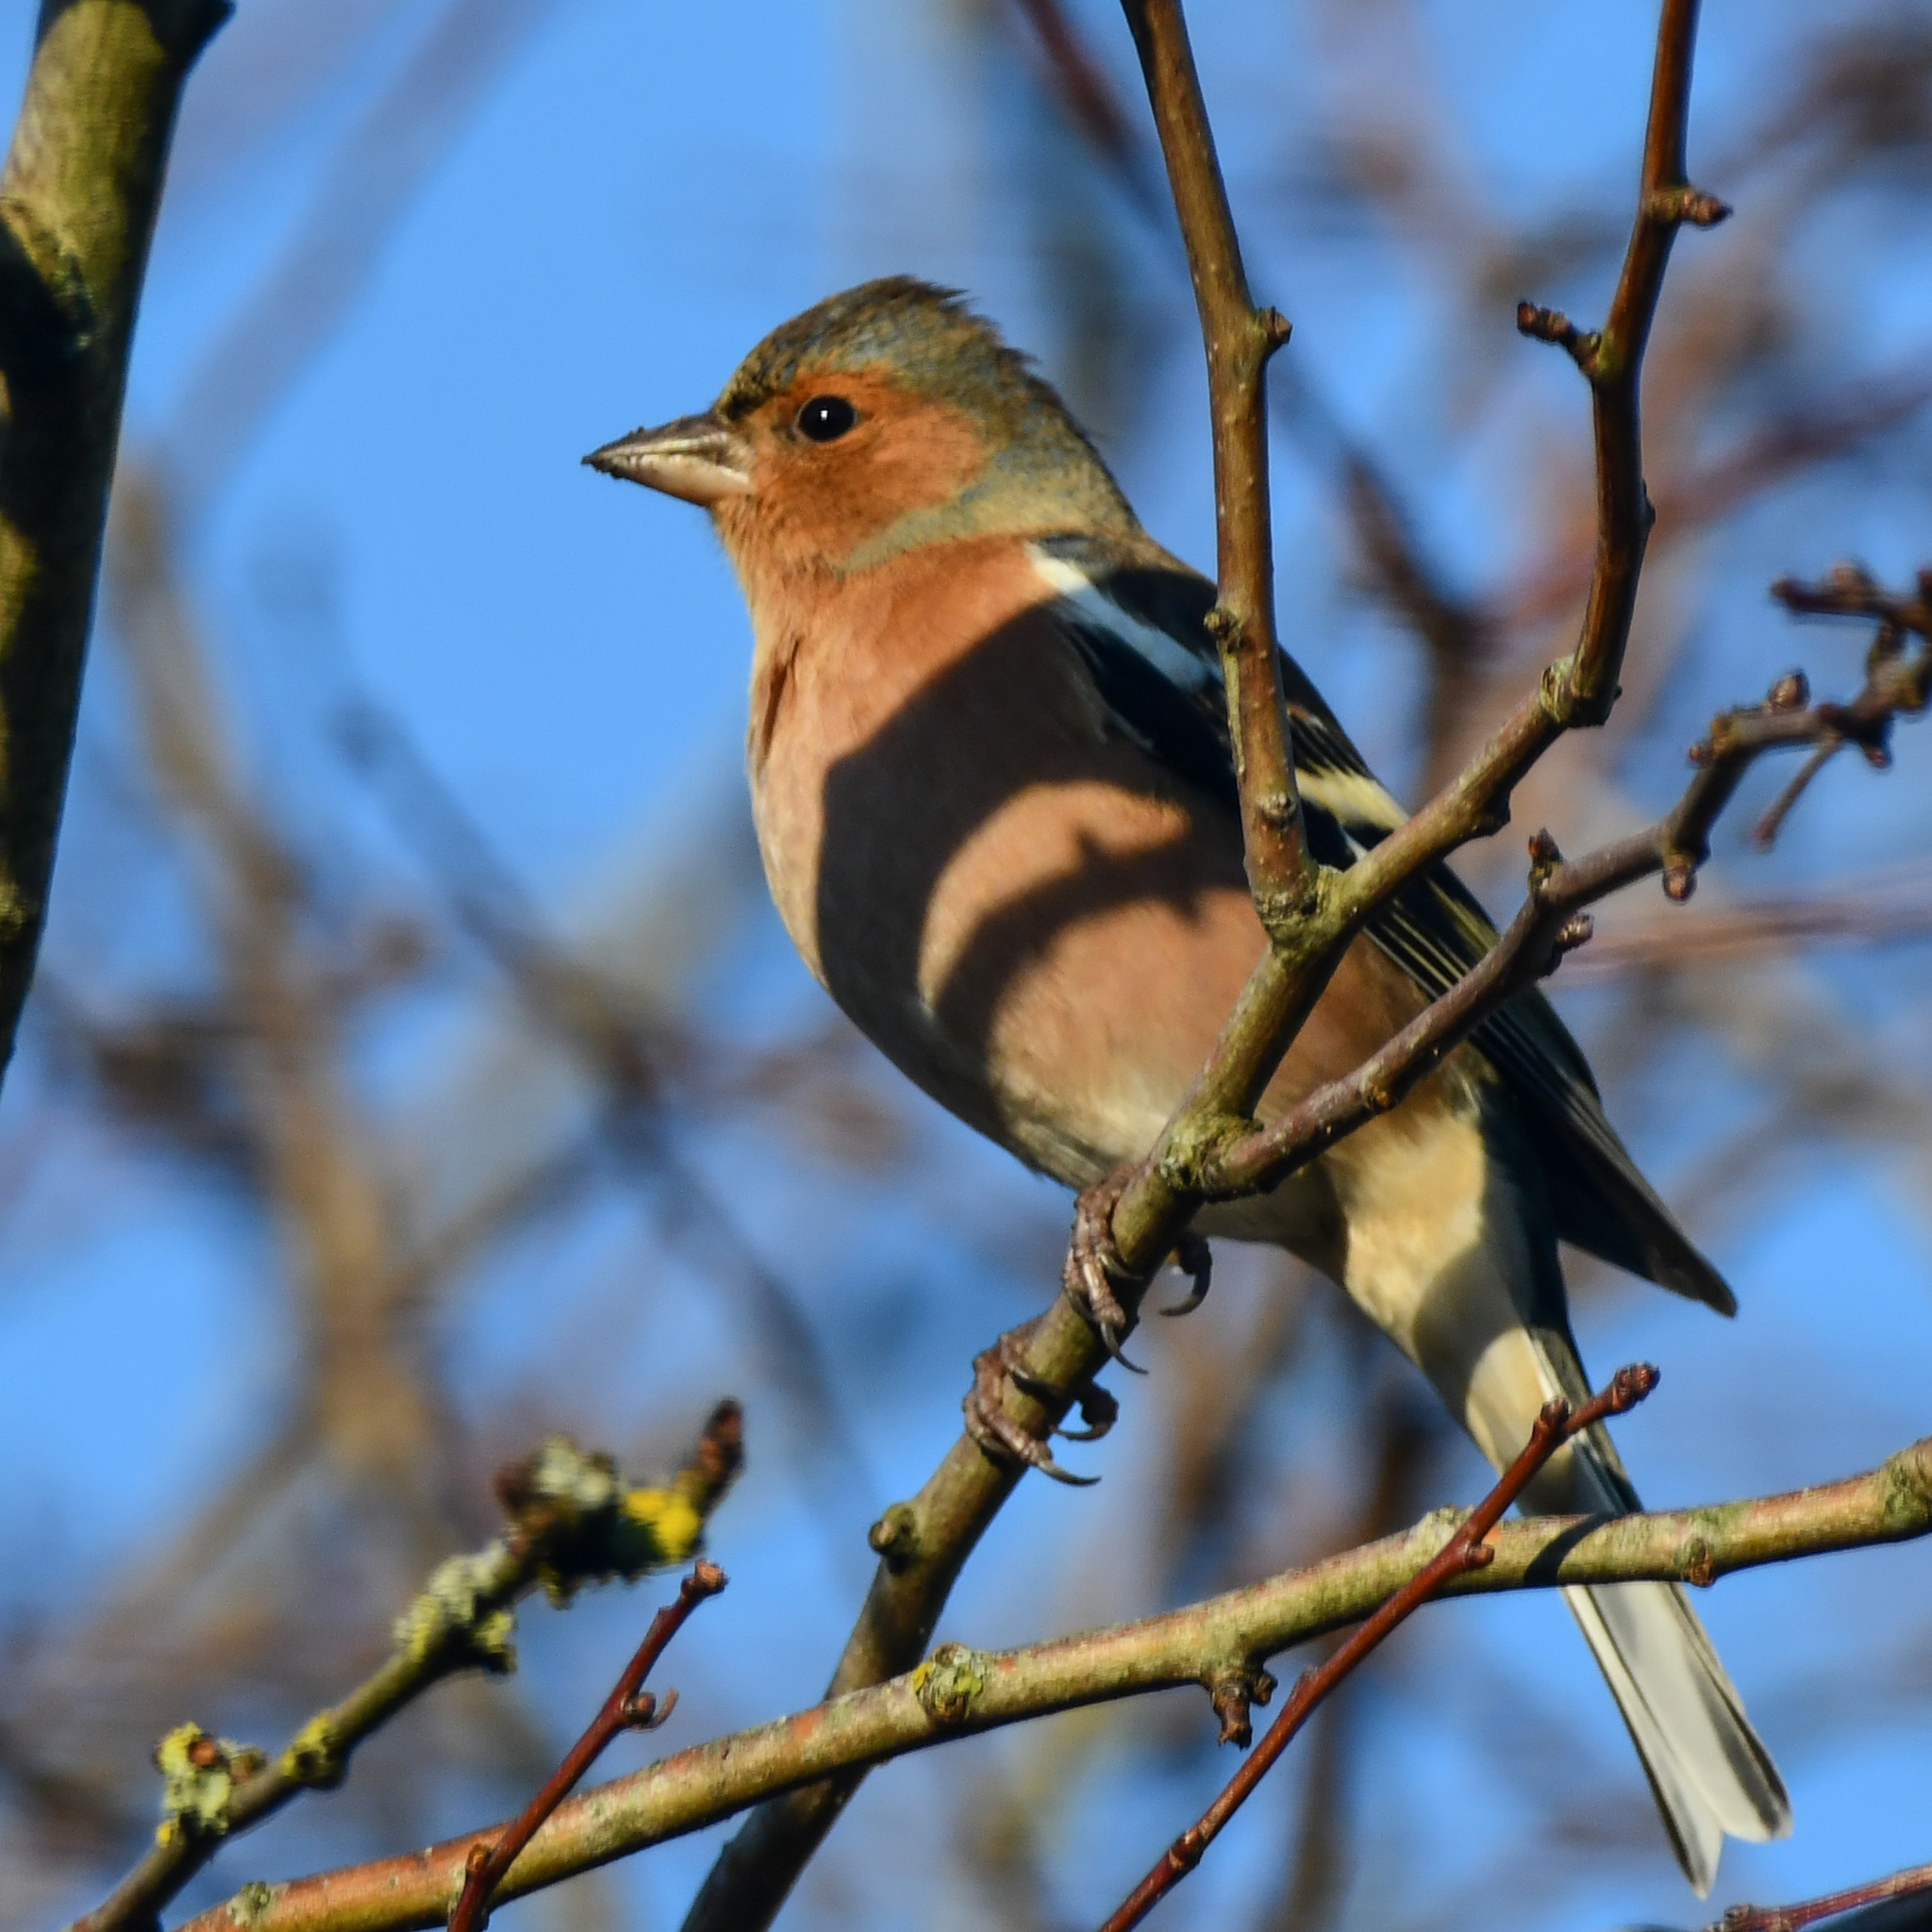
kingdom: Animalia
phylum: Chordata
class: Aves
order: Passeriformes
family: Fringillidae
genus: Fringilla
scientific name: Fringilla coelebs
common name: Common chaffinch
